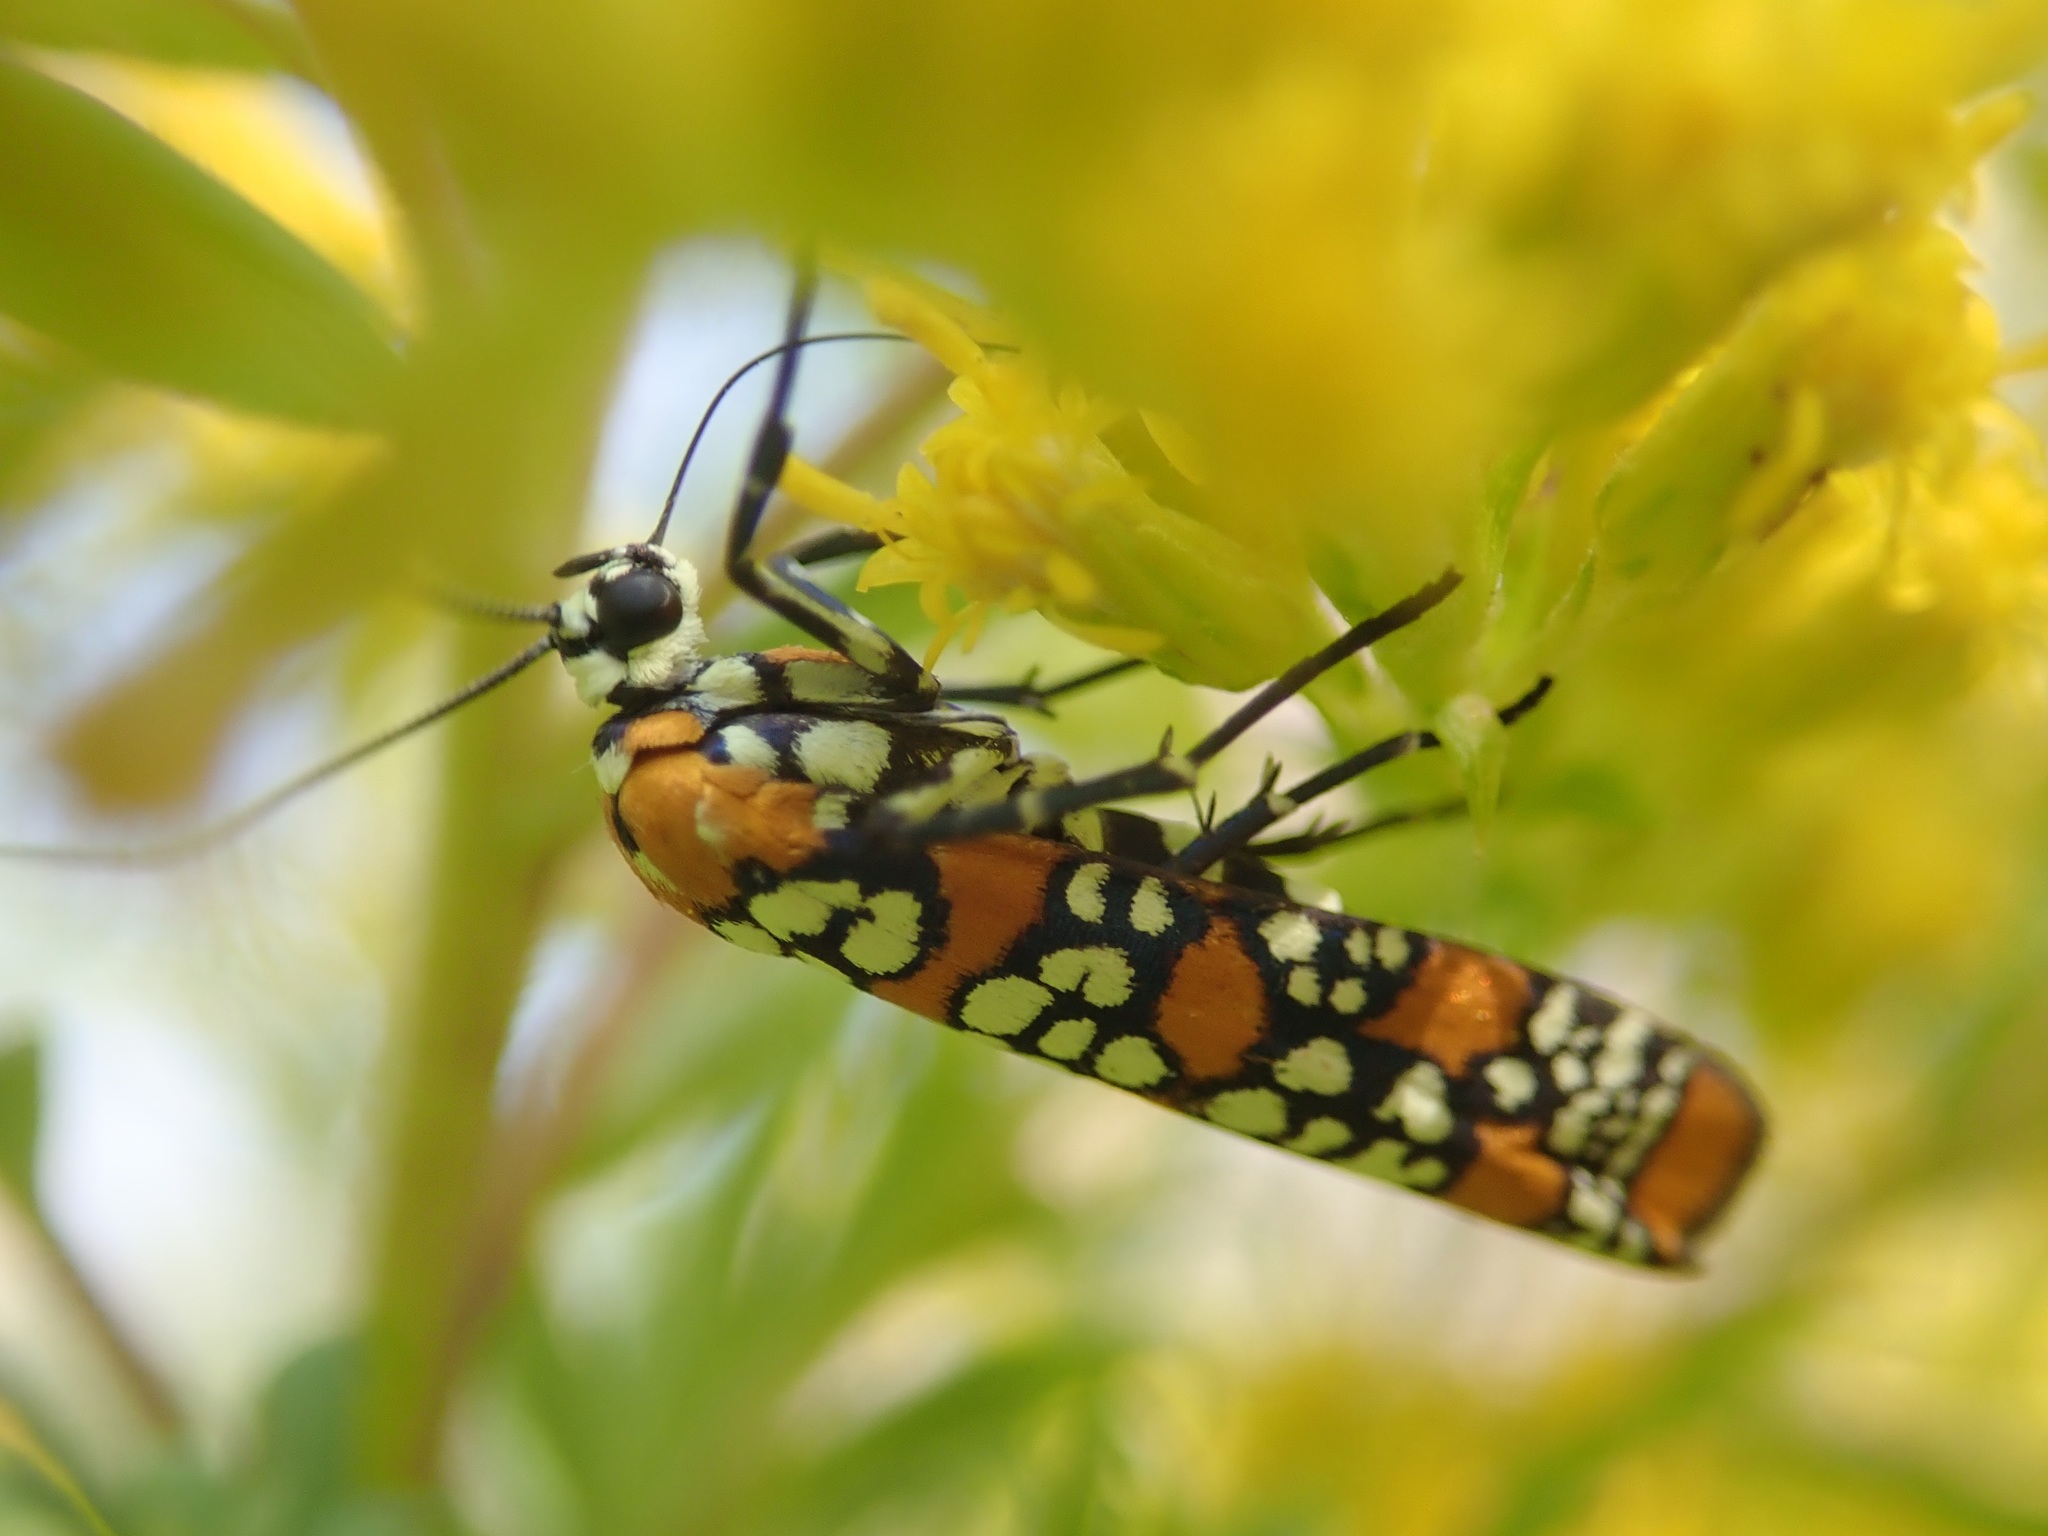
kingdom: Animalia
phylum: Arthropoda
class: Insecta
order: Lepidoptera
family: Attevidae
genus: Atteva
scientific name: Atteva punctella
